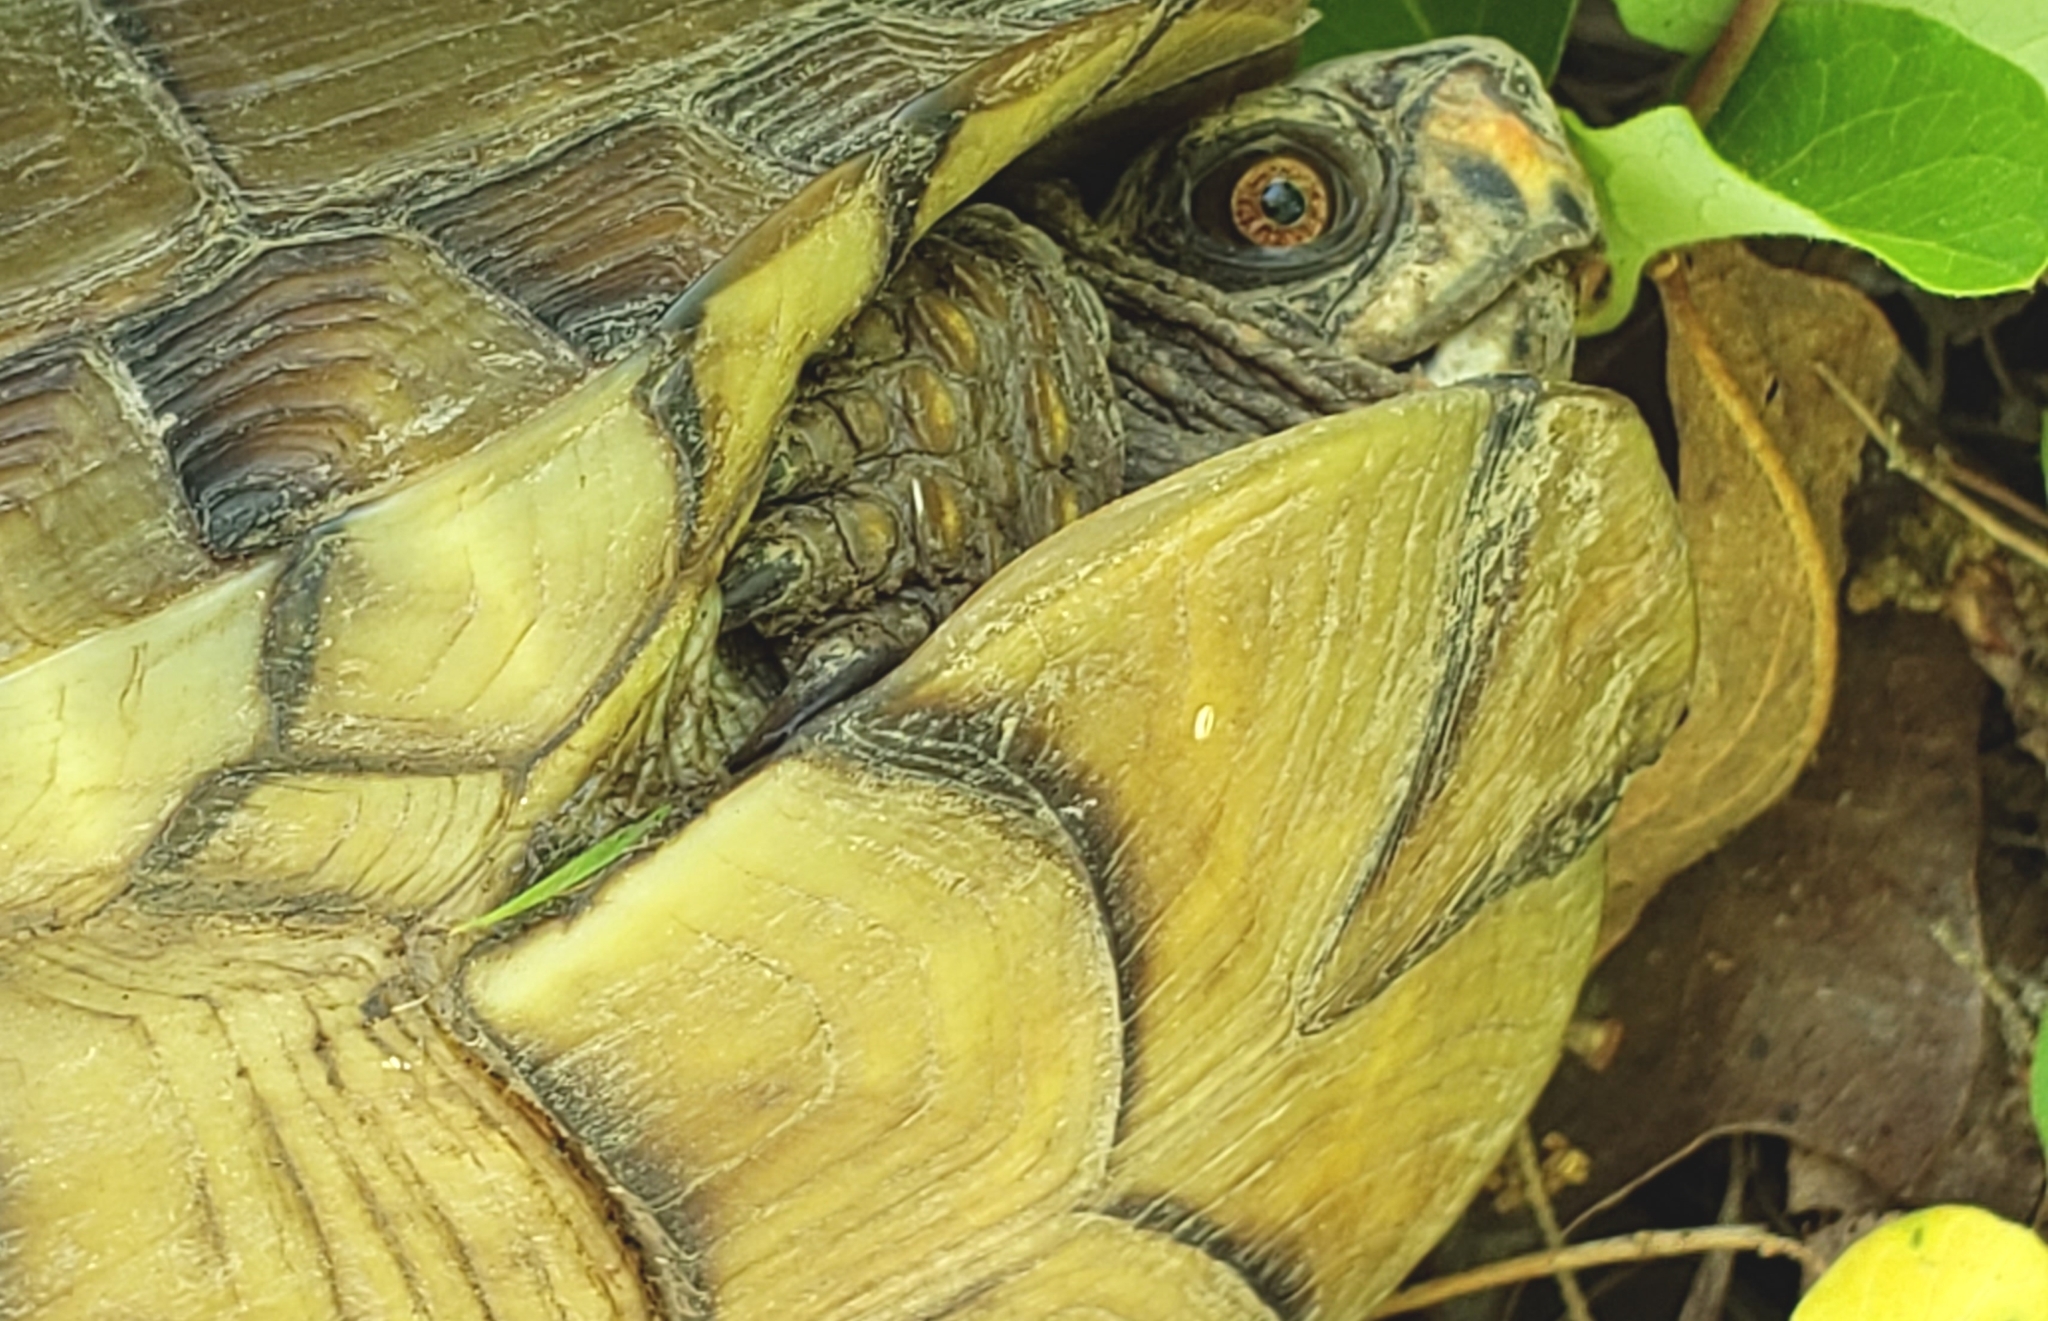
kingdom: Animalia
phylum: Chordata
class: Testudines
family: Emydidae
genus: Terrapene
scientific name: Terrapene carolina
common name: Common box turtle
